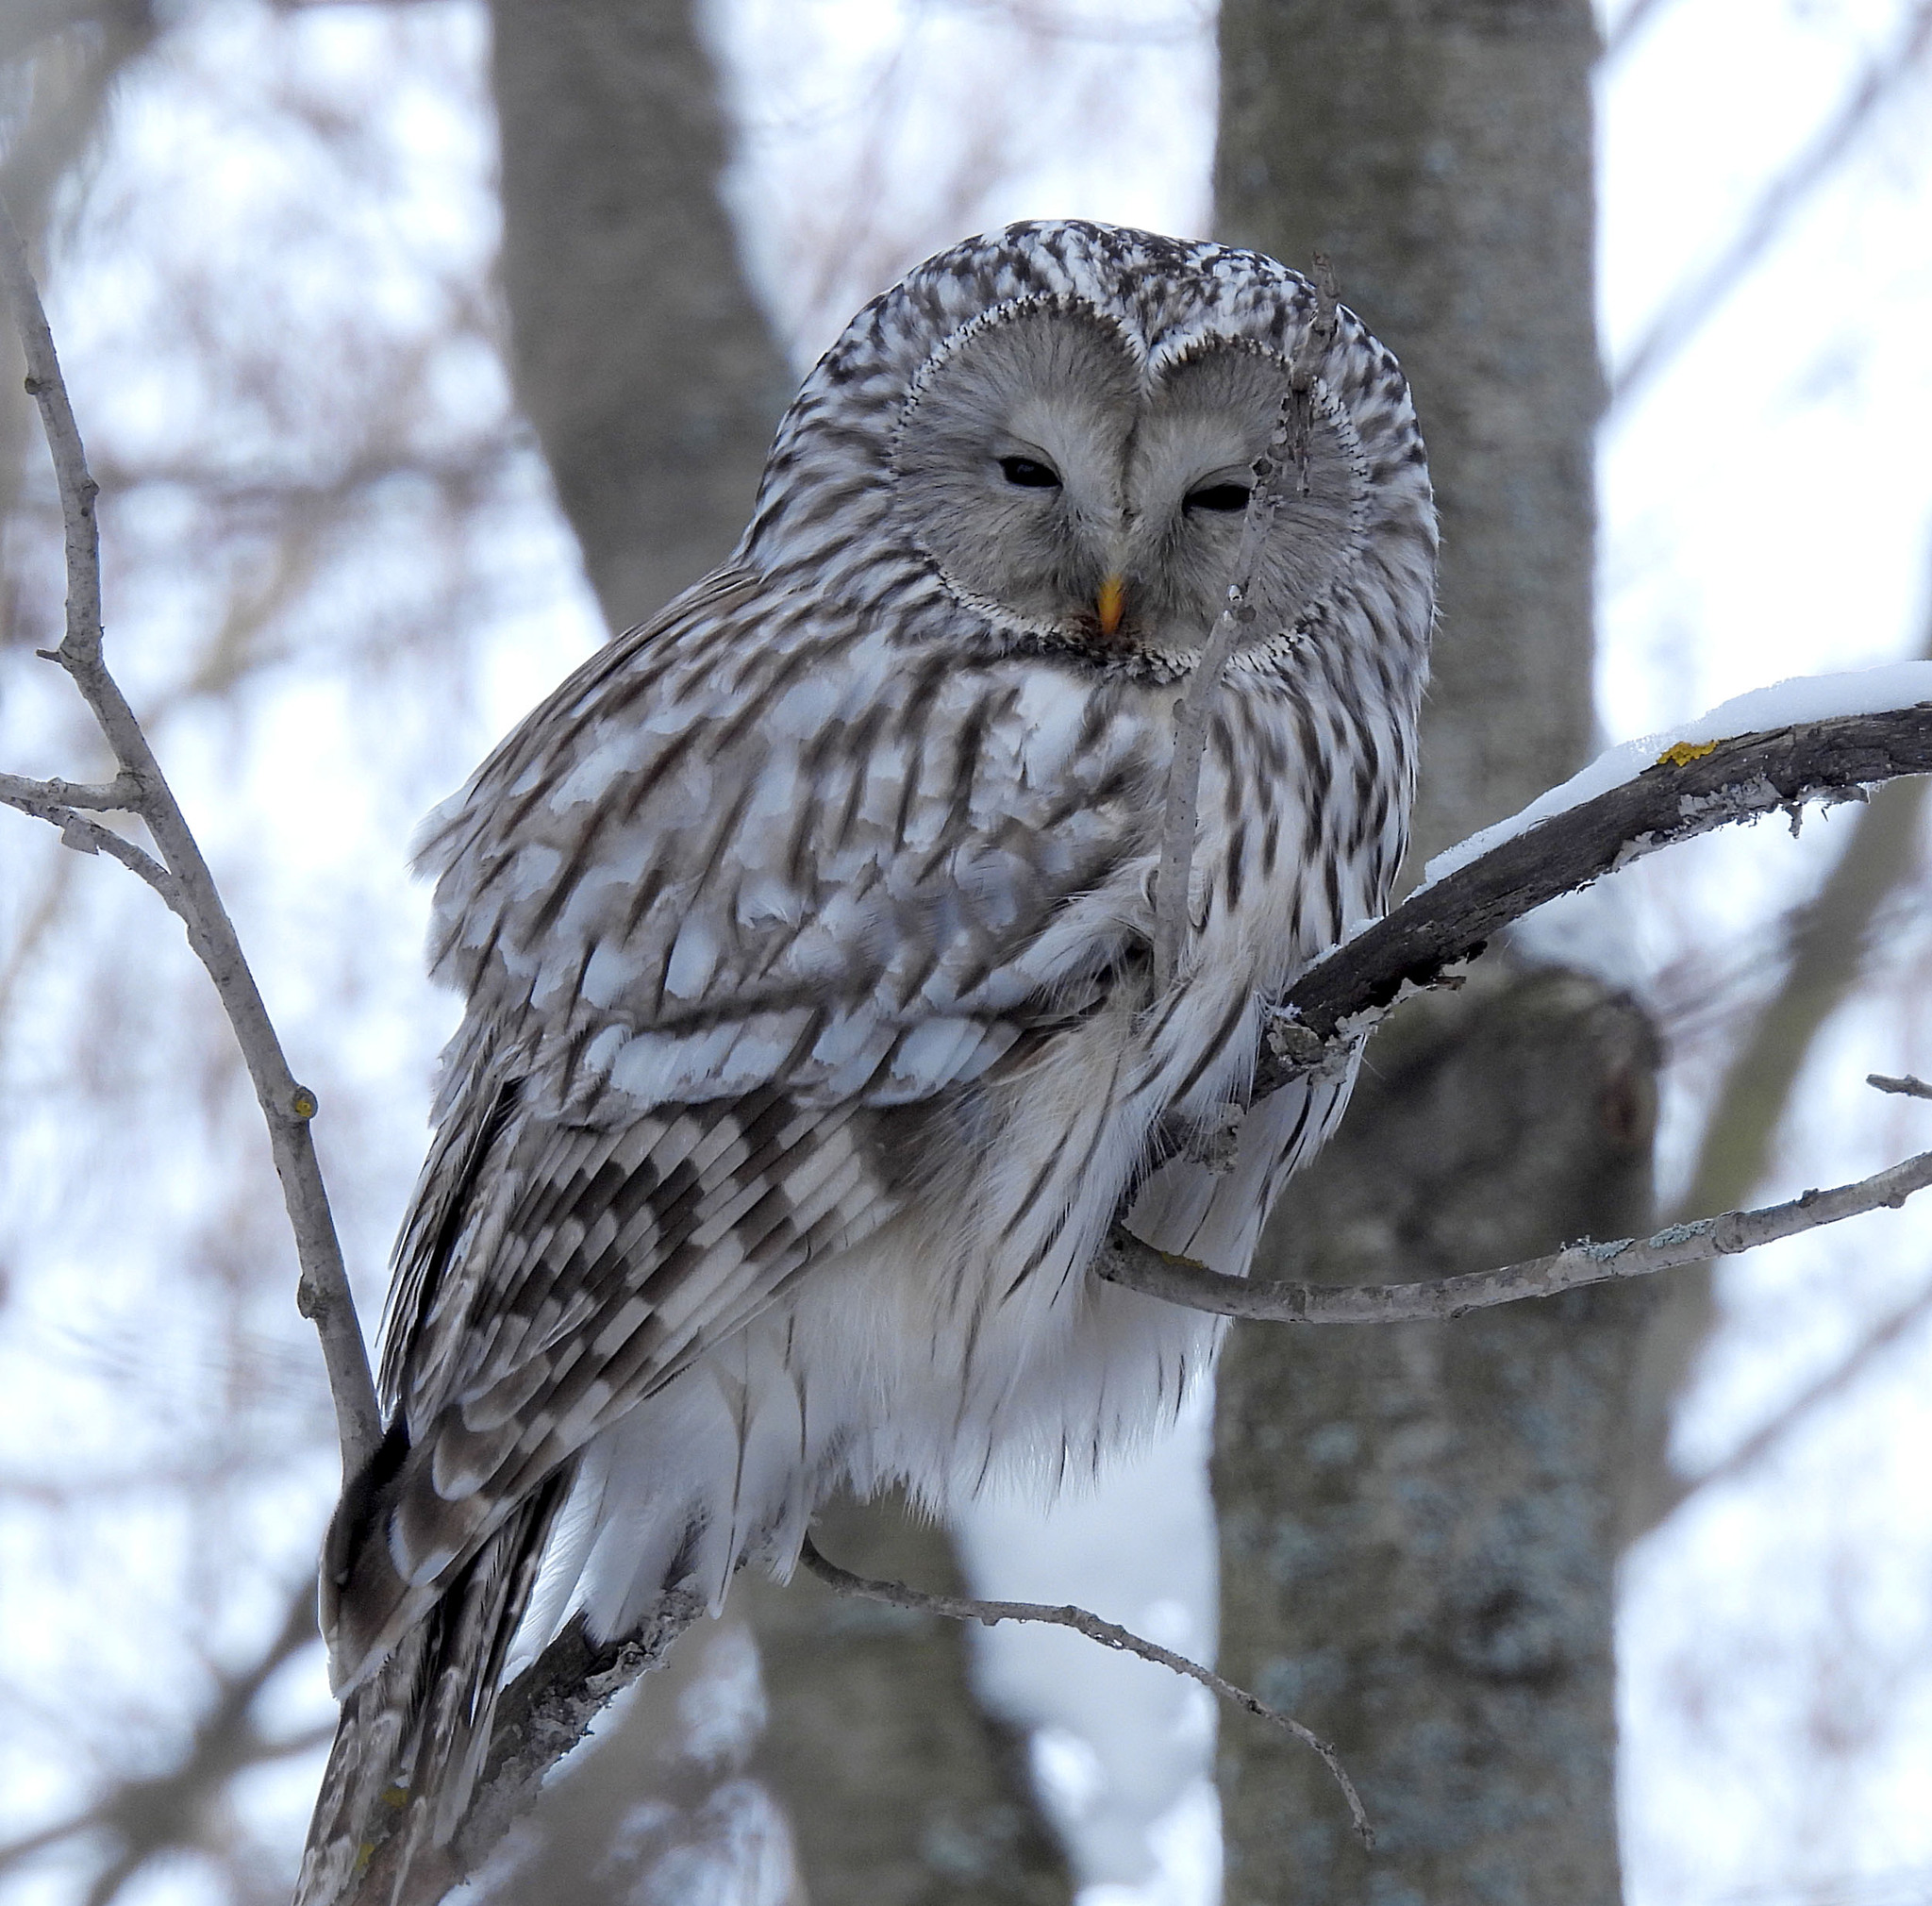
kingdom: Animalia
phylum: Chordata
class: Aves
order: Strigiformes
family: Strigidae
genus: Strix
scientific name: Strix uralensis
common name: Ural owl
